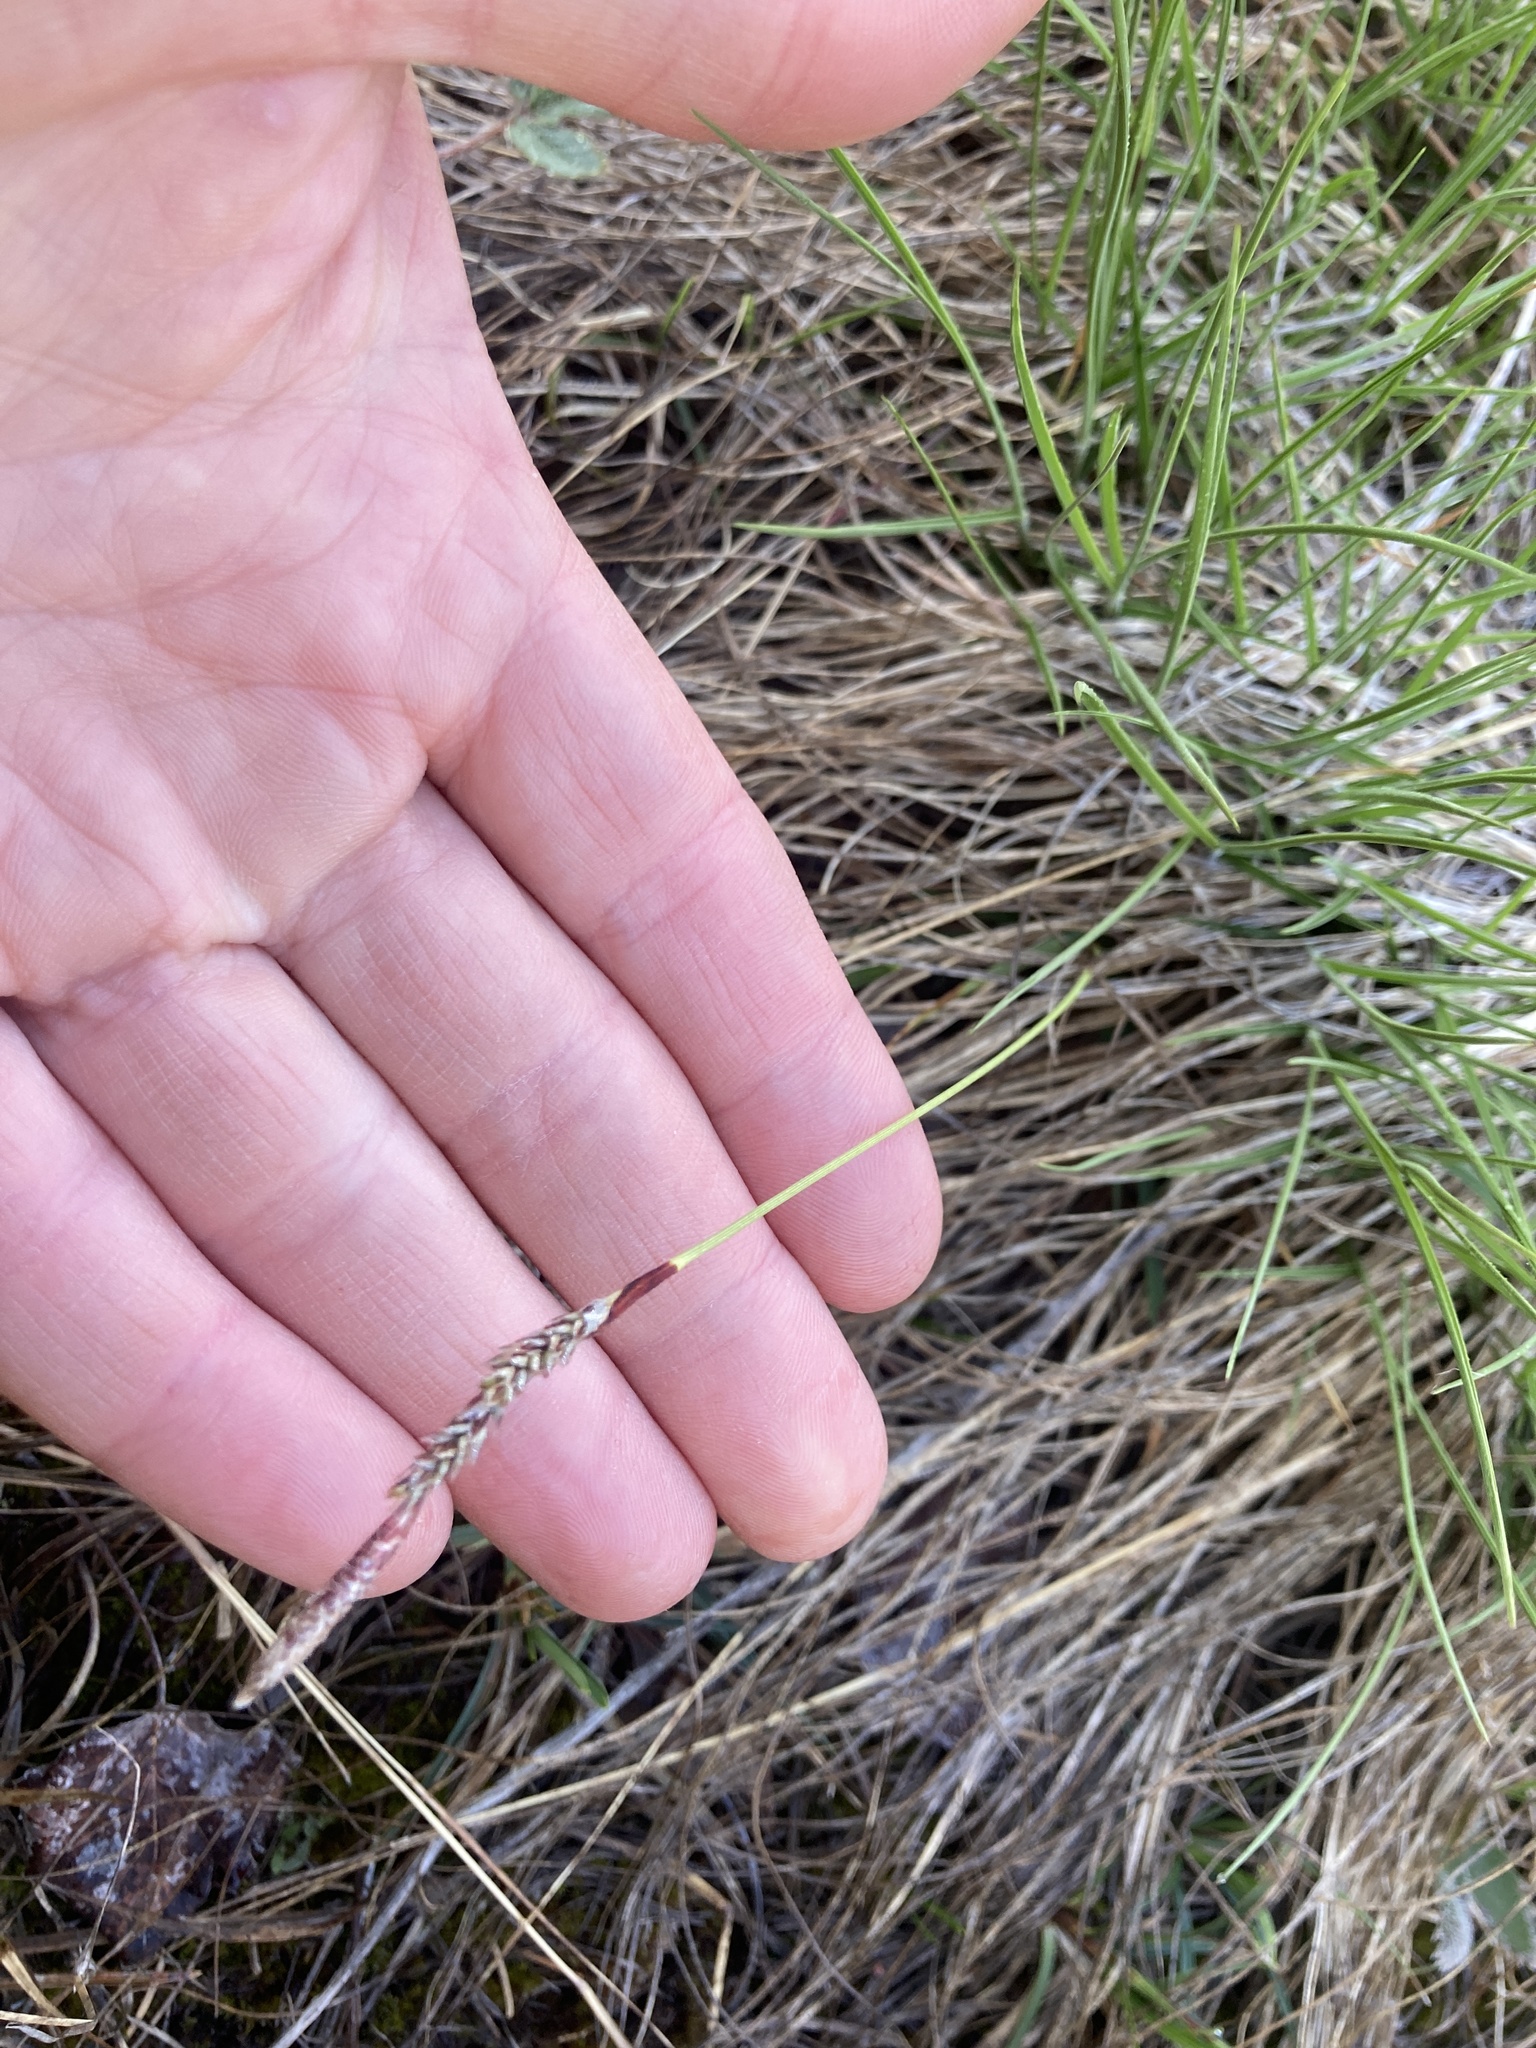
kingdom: Plantae
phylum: Tracheophyta
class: Liliopsida
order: Poales
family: Cyperaceae
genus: Carex
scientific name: Carex richardsonii
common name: Prairie hummock sedge
